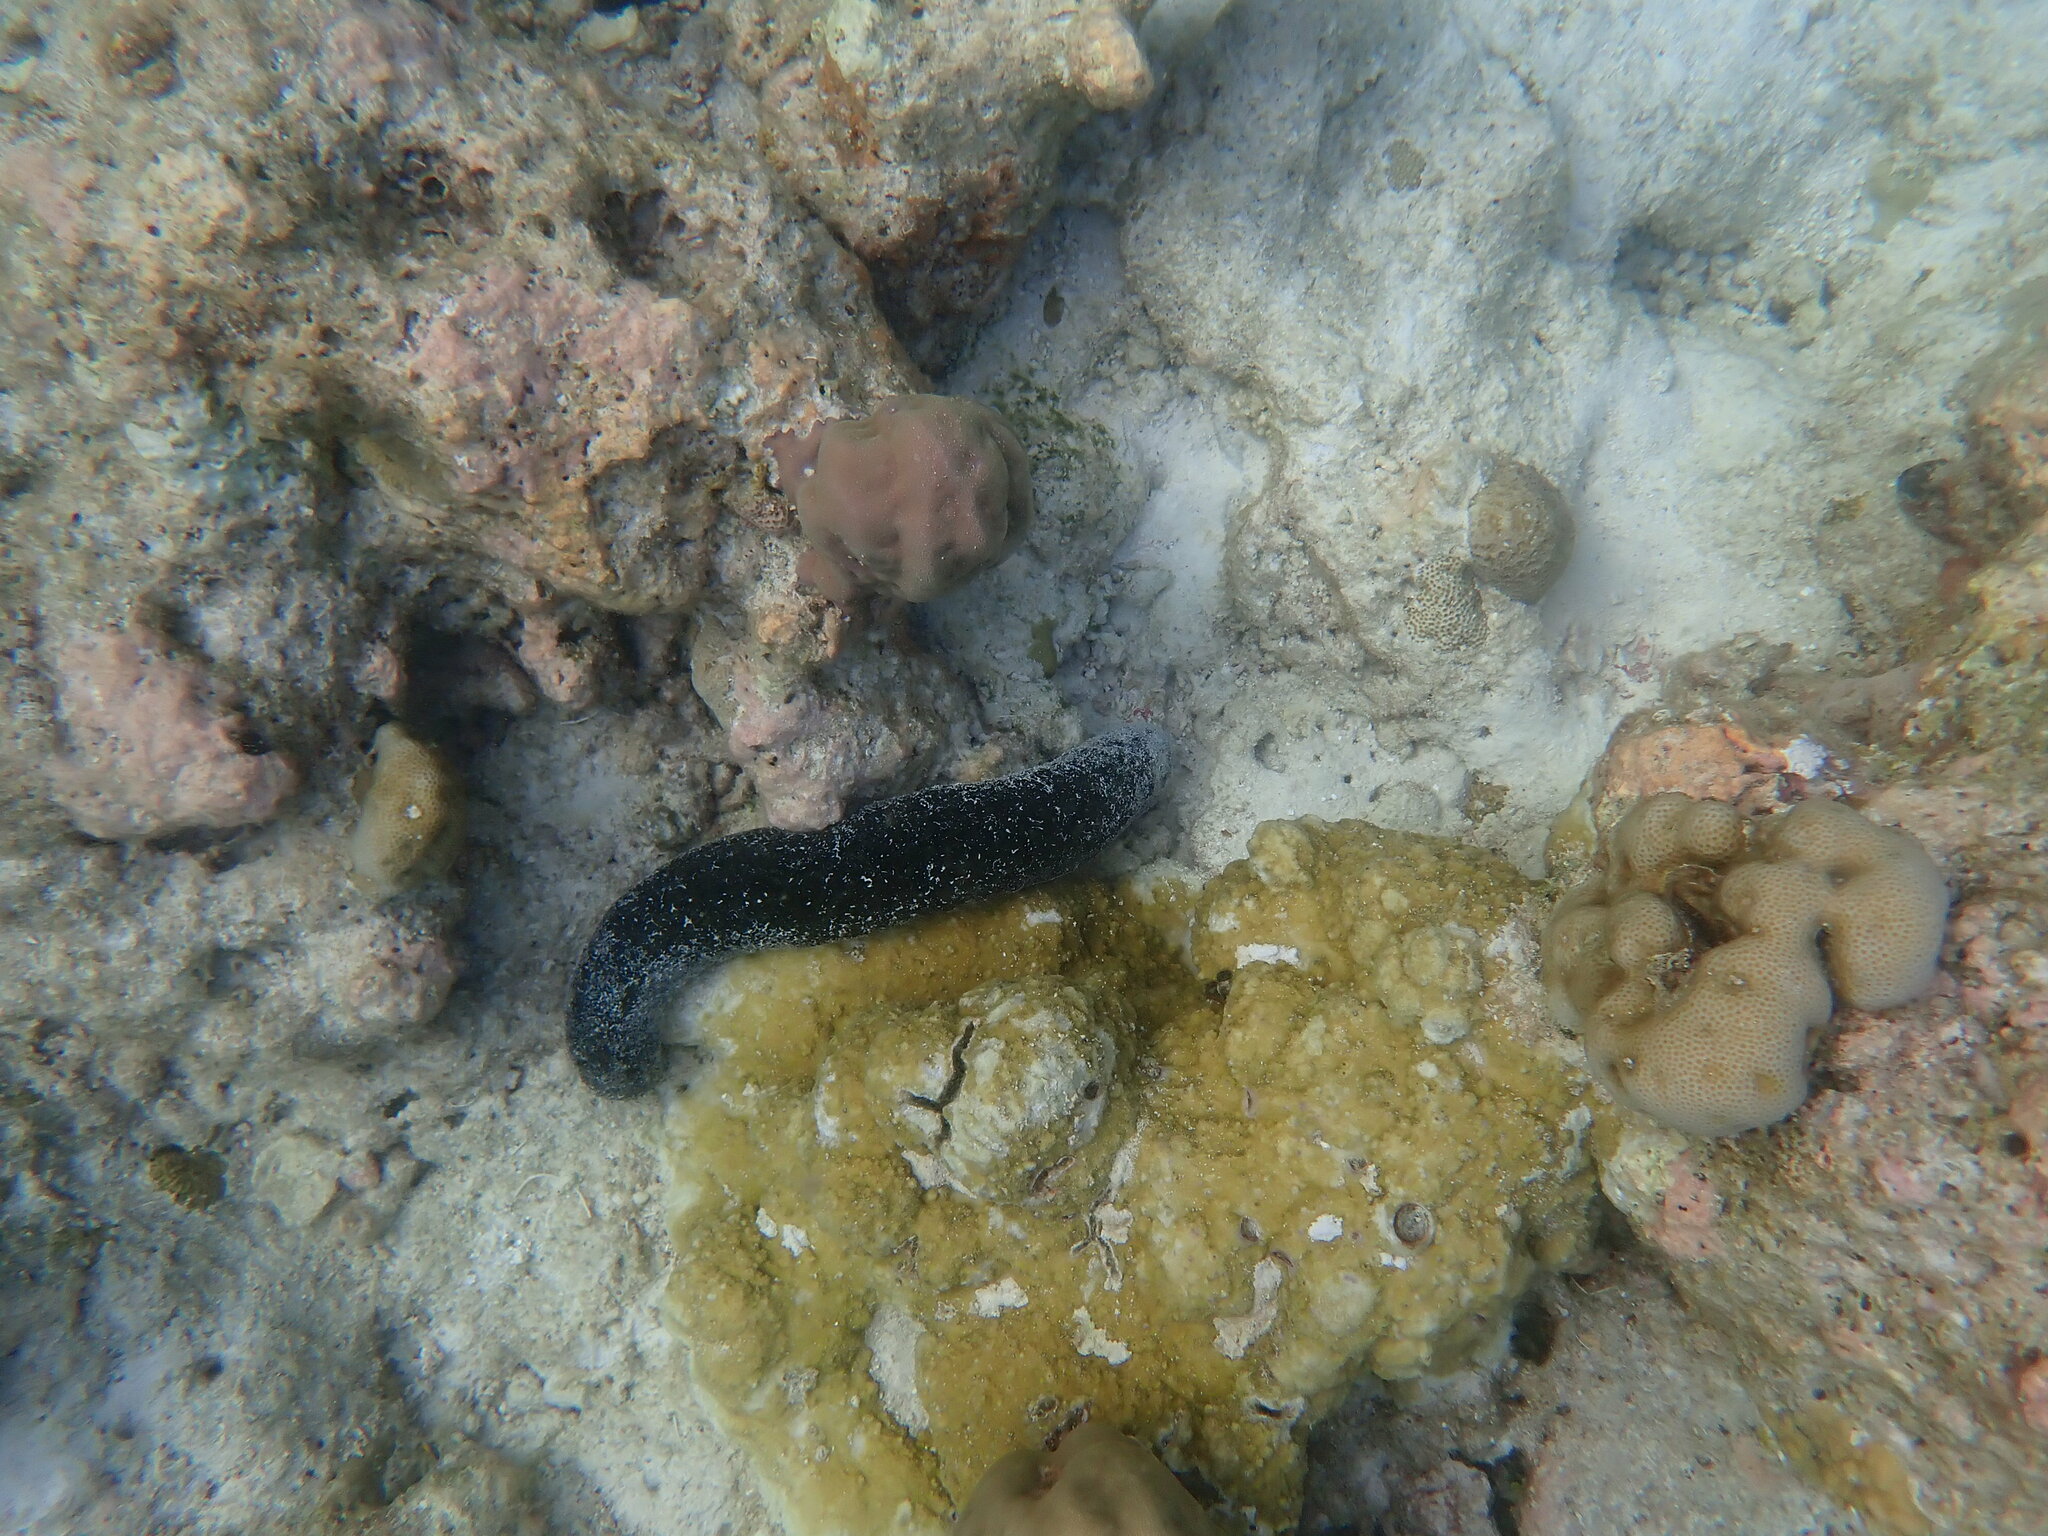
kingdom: Animalia
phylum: Echinodermata
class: Holothuroidea
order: Holothuriida
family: Holothuriidae
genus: Holothuria
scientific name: Holothuria atra
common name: Lollyfish
